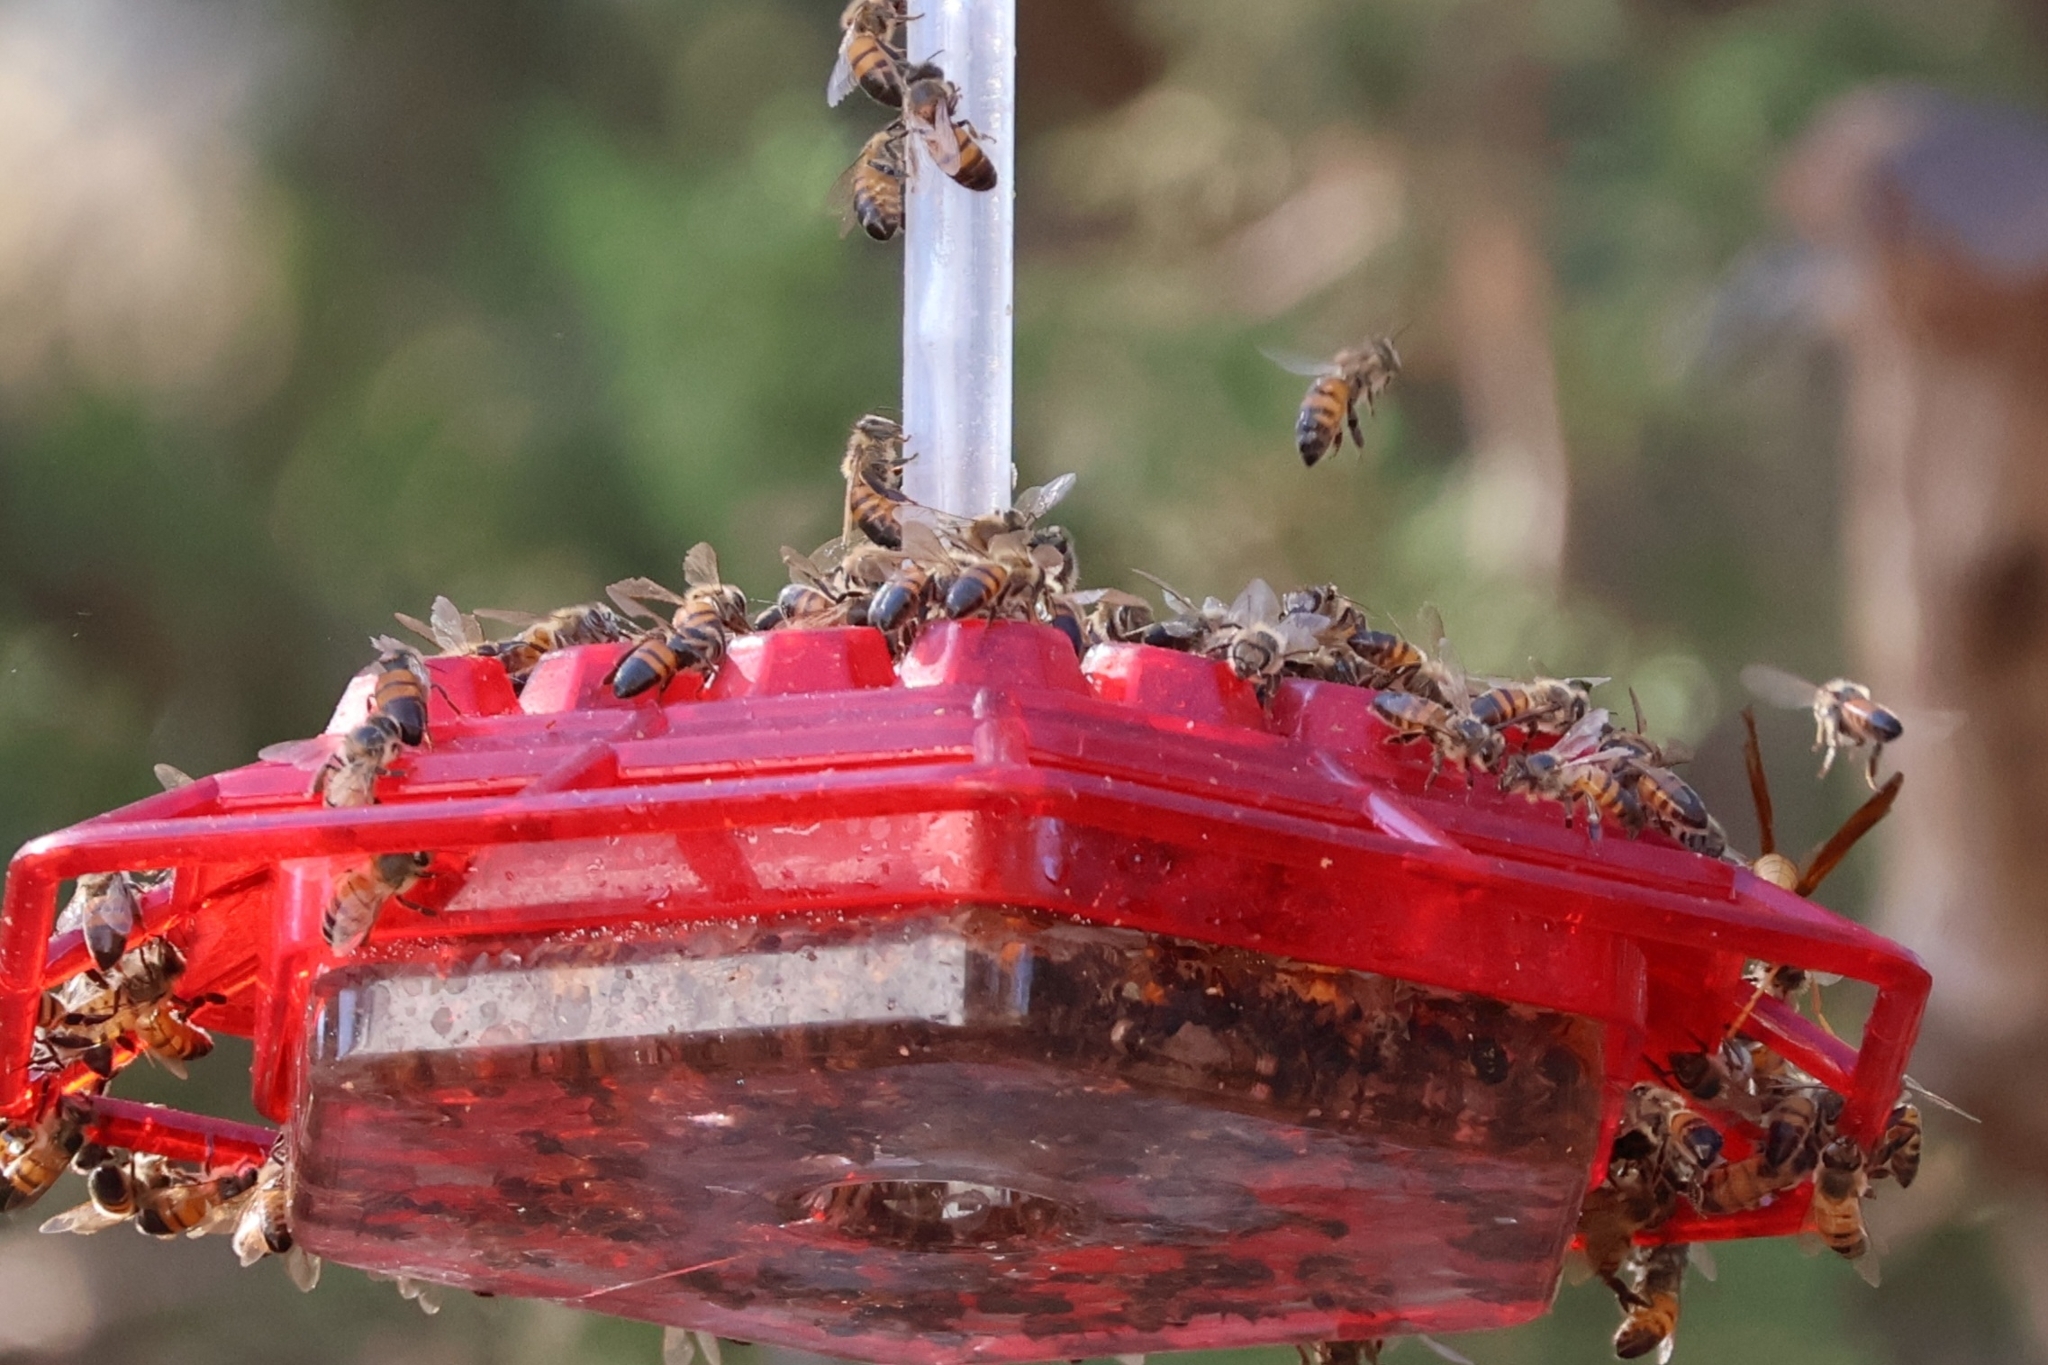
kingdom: Animalia
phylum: Arthropoda
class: Insecta
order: Hymenoptera
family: Apidae
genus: Apis
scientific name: Apis mellifera
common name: Honey bee
